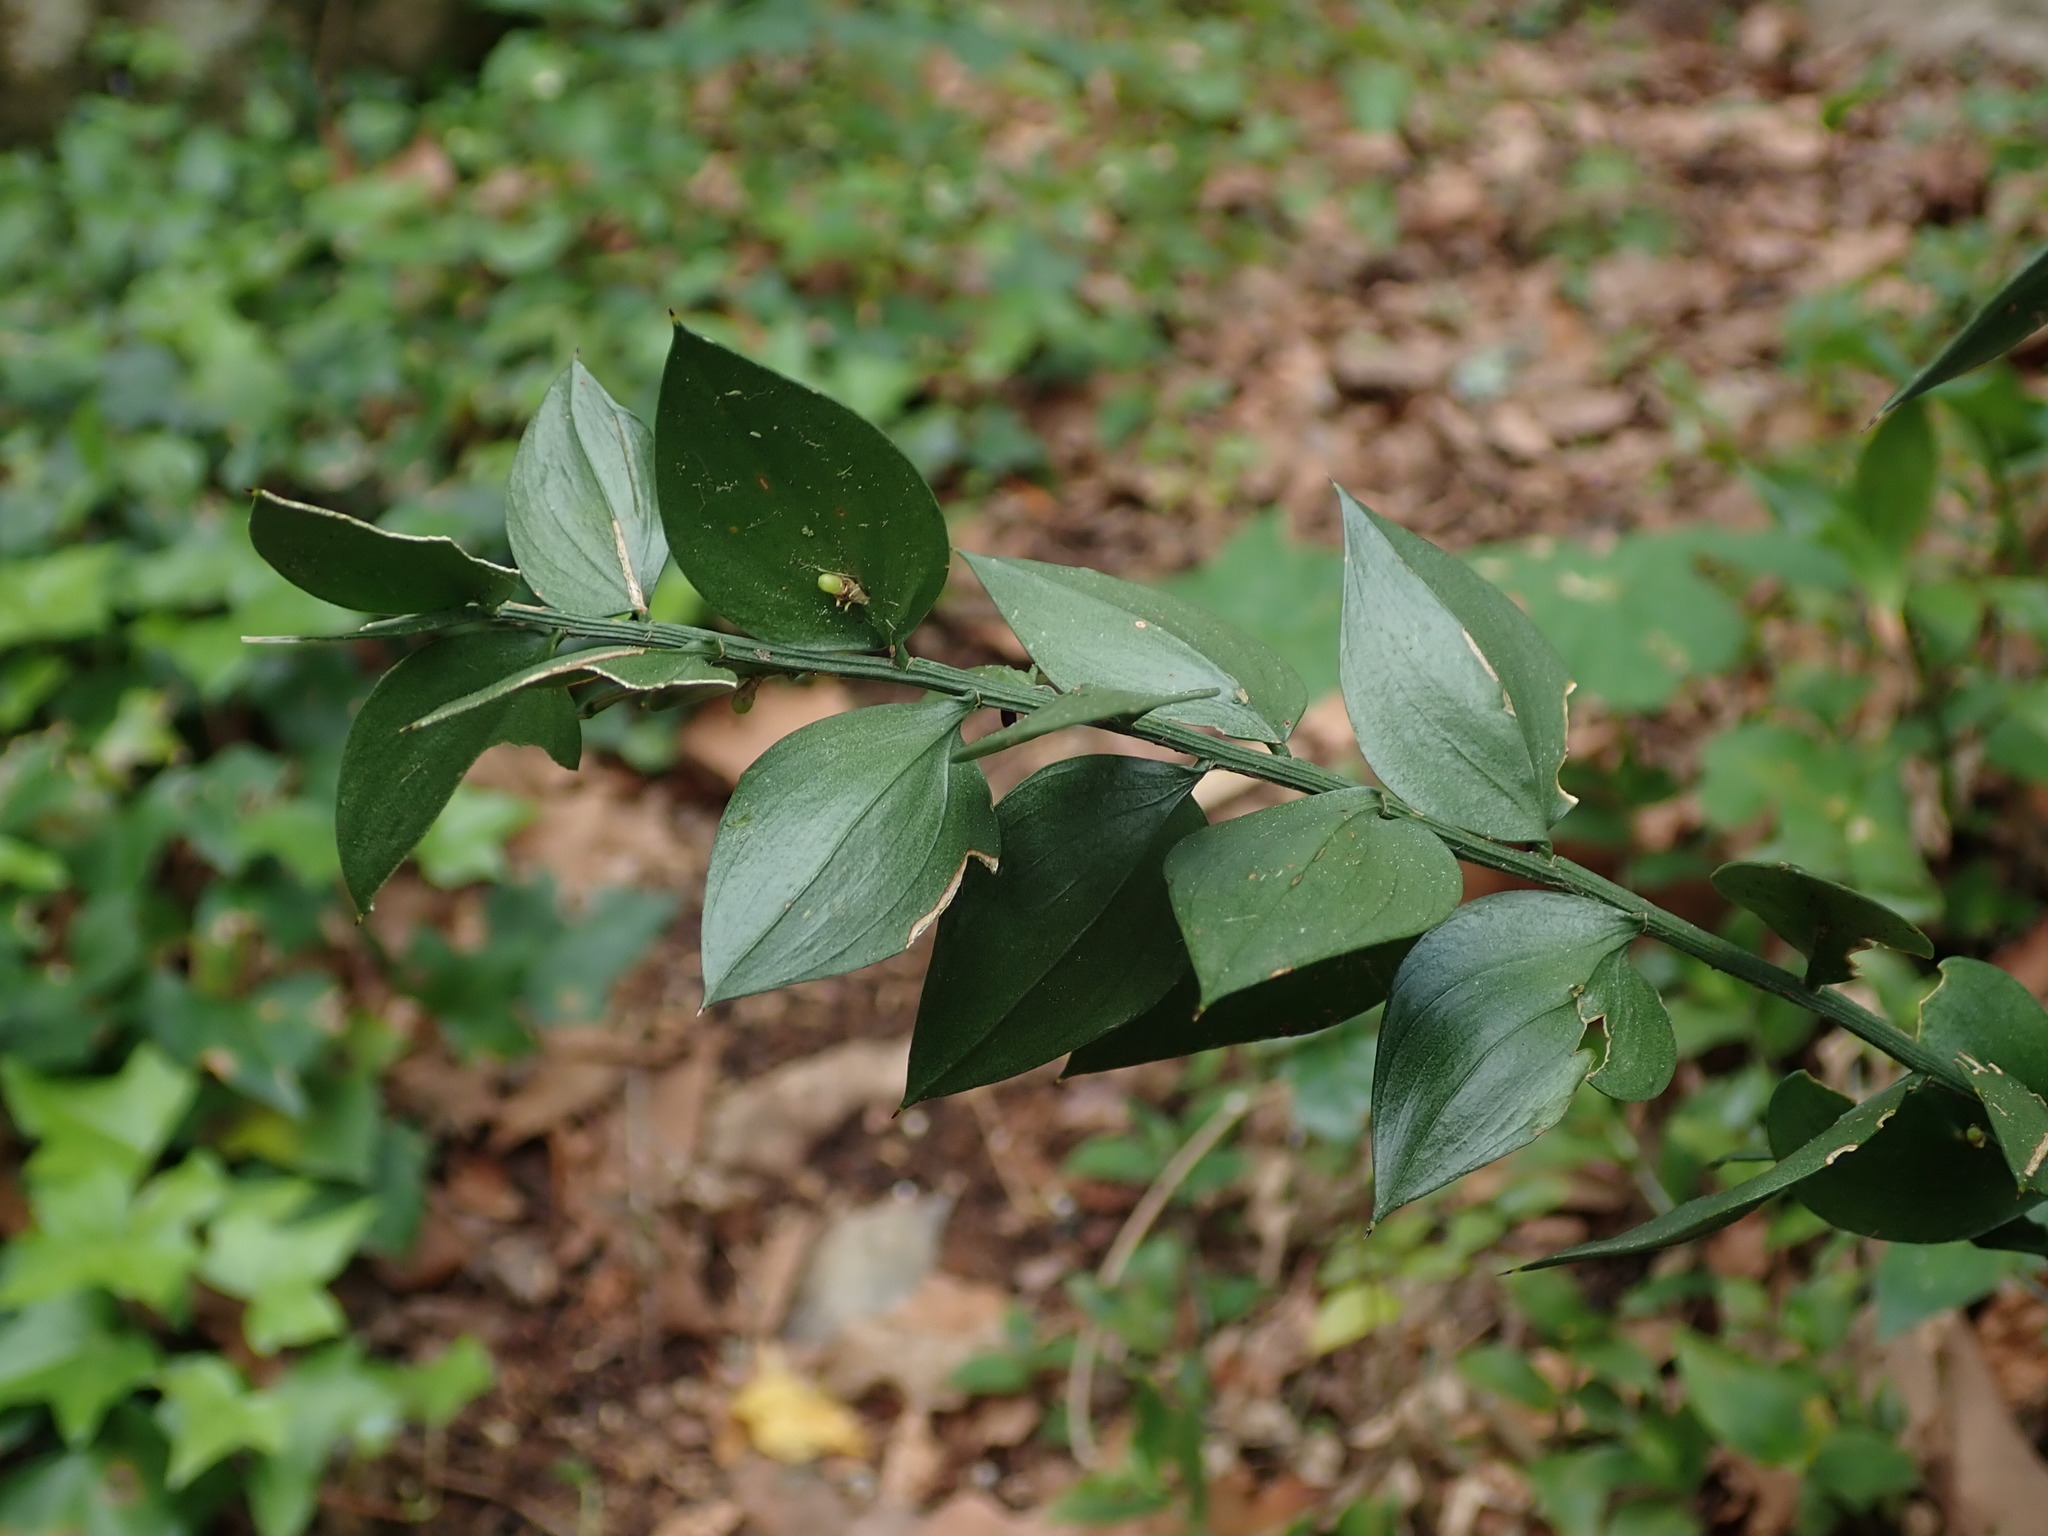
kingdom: Plantae
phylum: Tracheophyta
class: Liliopsida
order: Asparagales
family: Asparagaceae
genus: Ruscus
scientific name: Ruscus aculeatus
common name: Butcher's-broom
